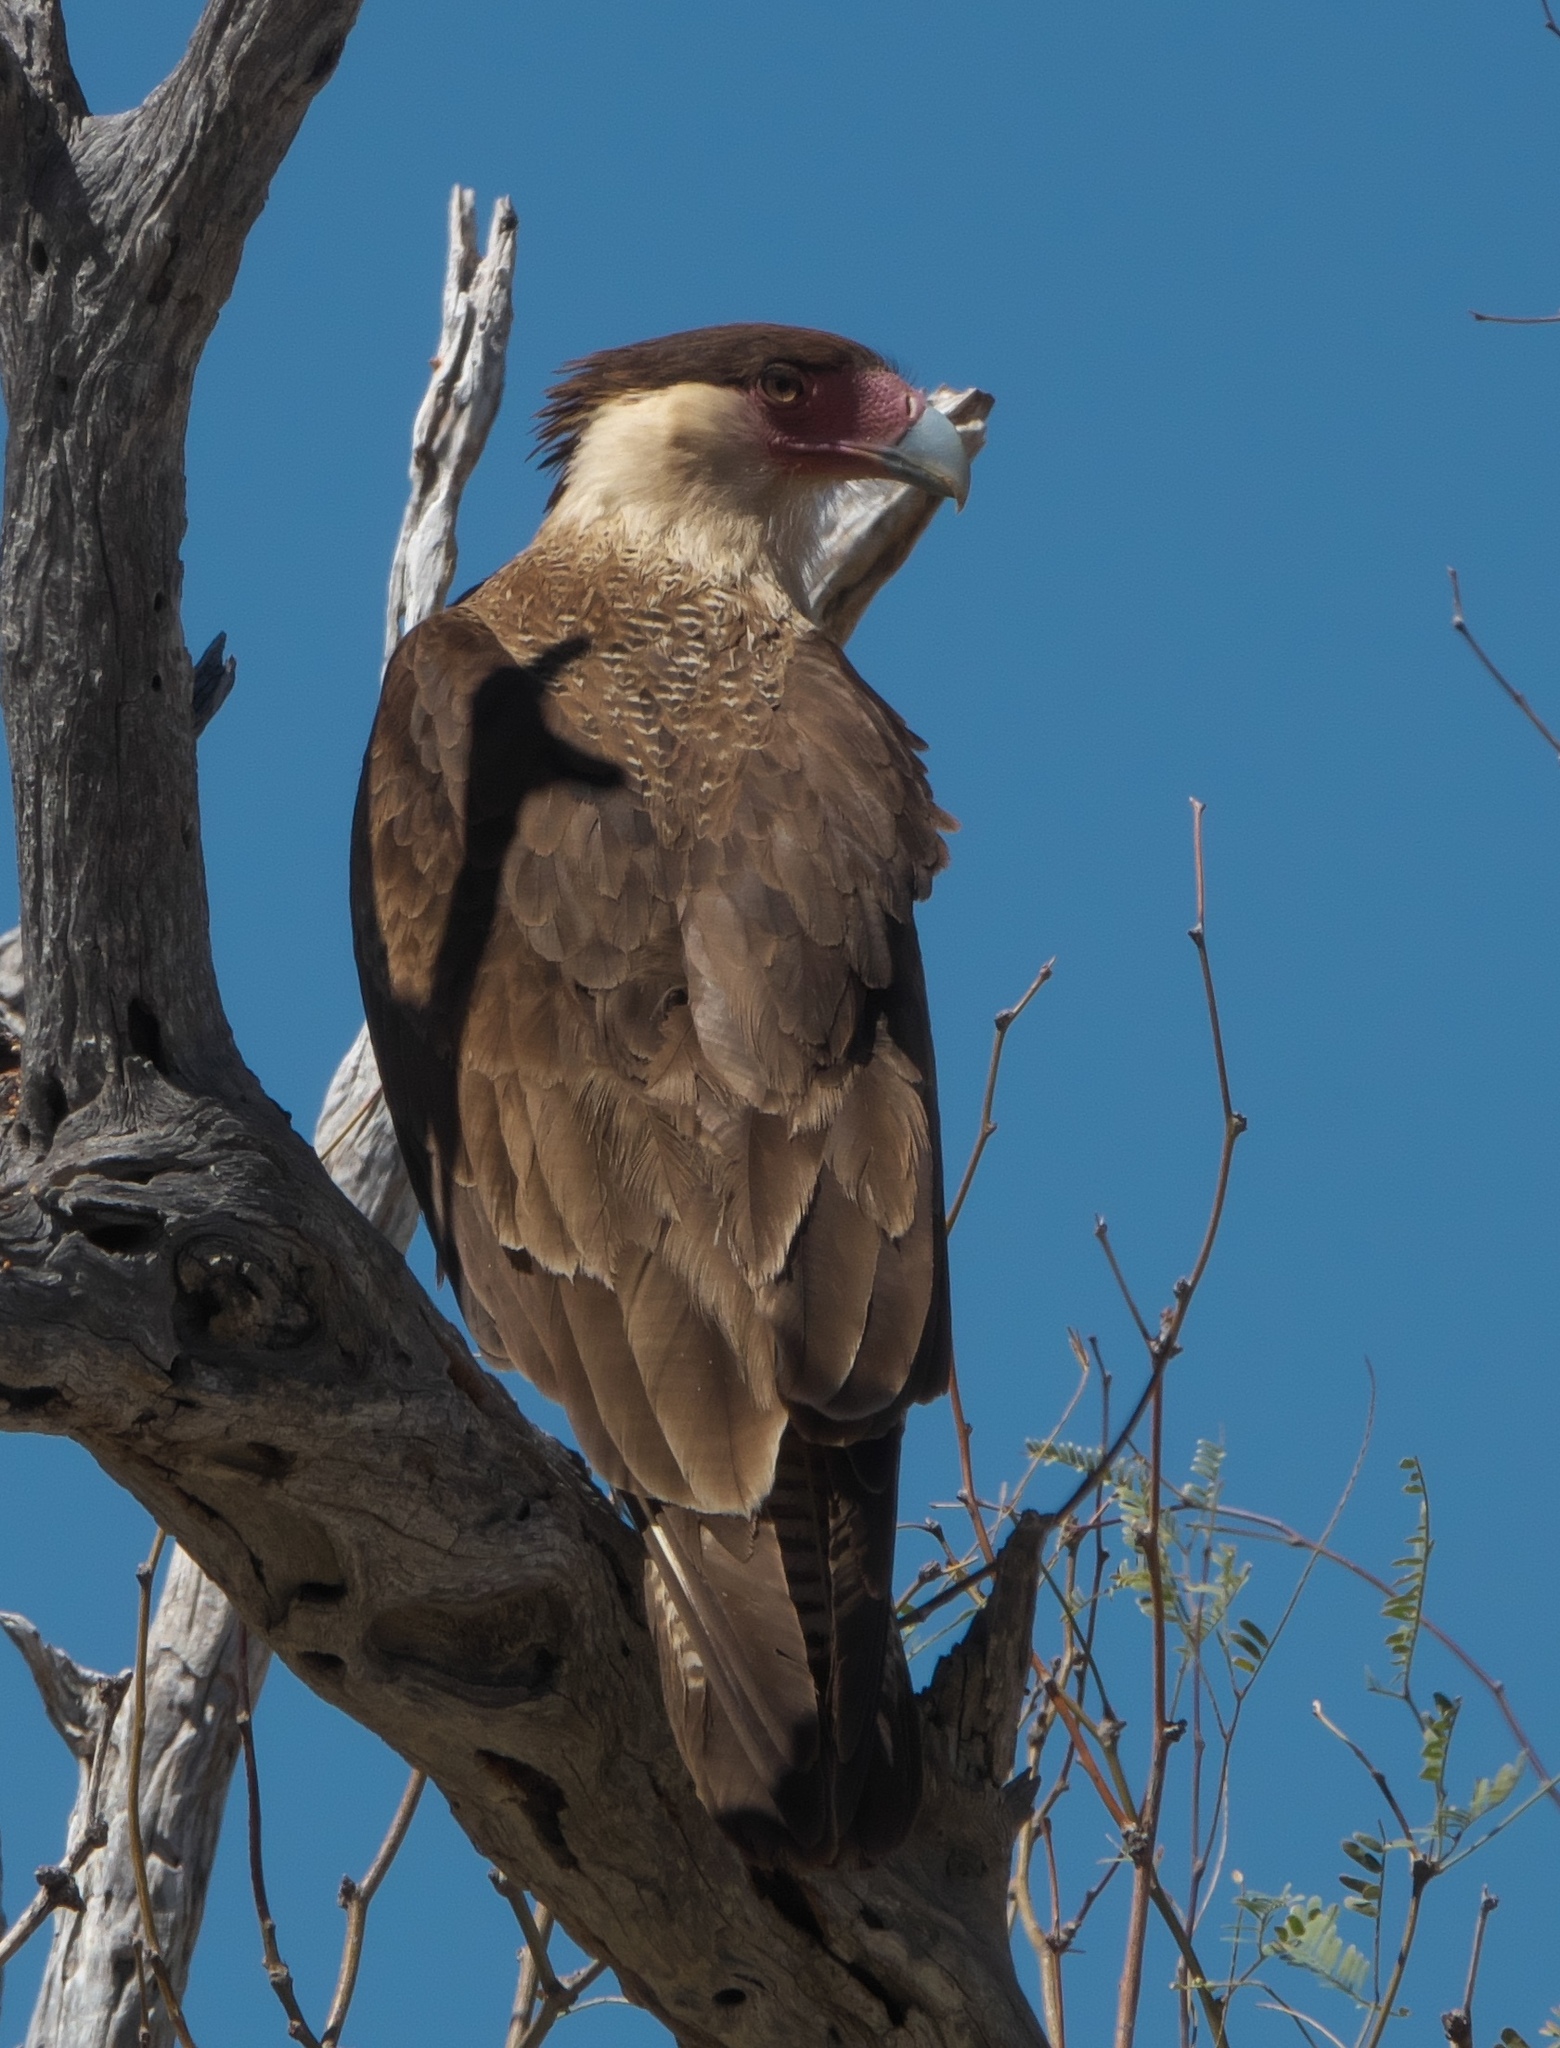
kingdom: Animalia
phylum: Chordata
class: Aves
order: Falconiformes
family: Falconidae
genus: Caracara
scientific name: Caracara plancus
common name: Southern caracara
